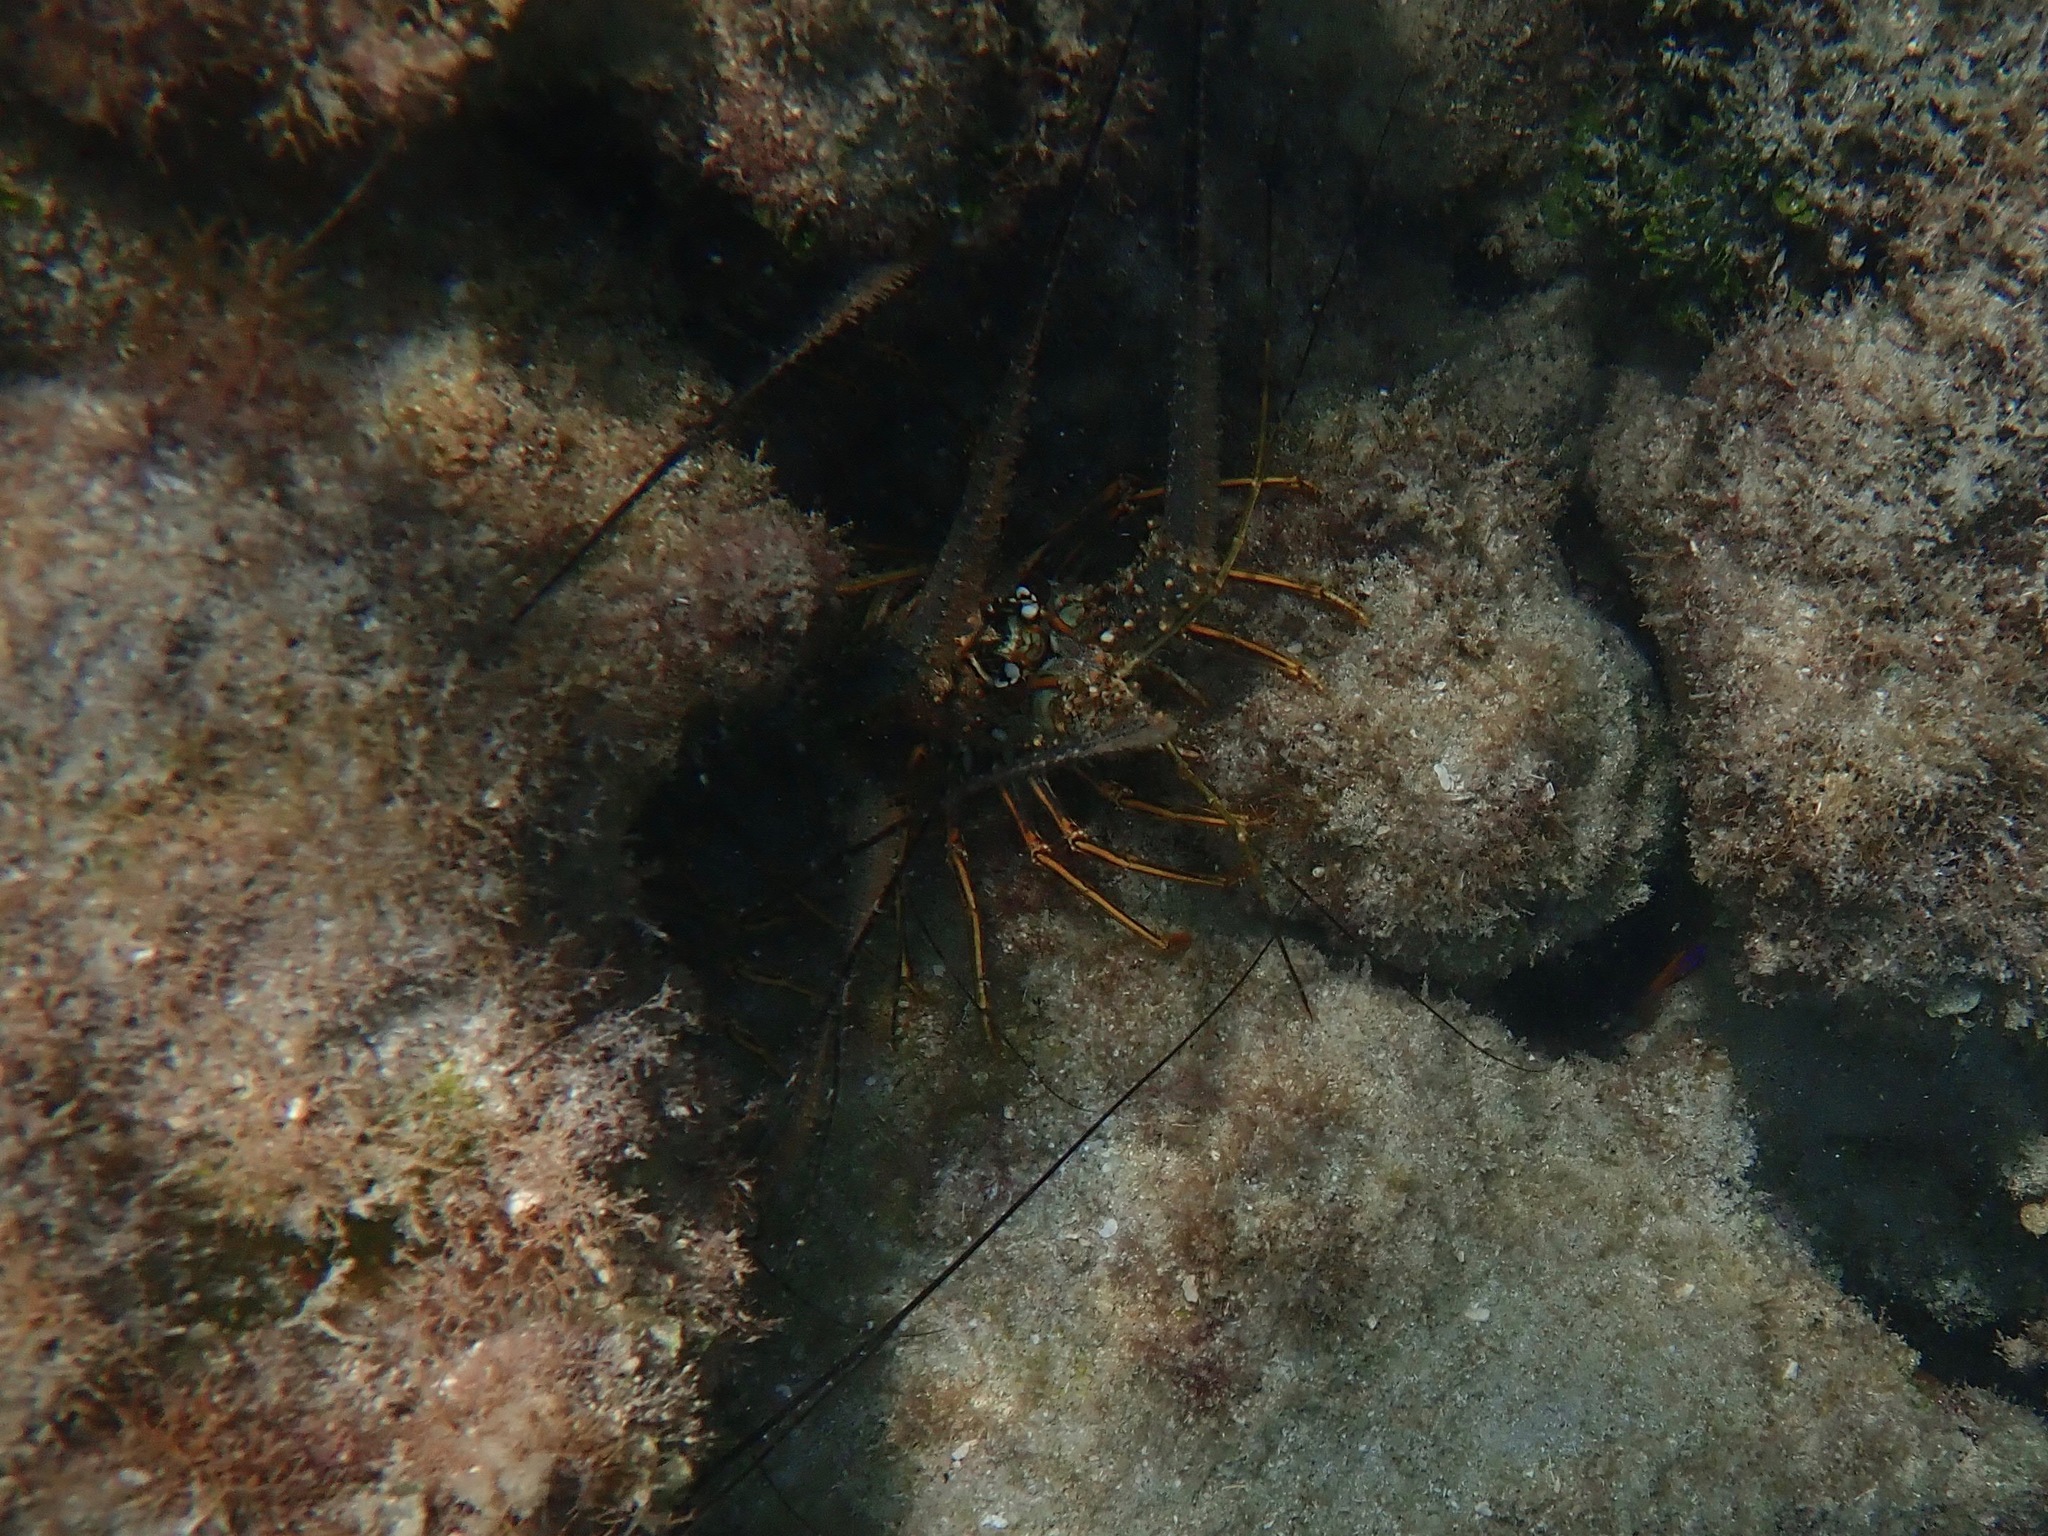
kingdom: Animalia
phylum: Arthropoda
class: Malacostraca
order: Decapoda
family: Palinuridae
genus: Panulirus
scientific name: Panulirus argus
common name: Caribbean spiny lobster
